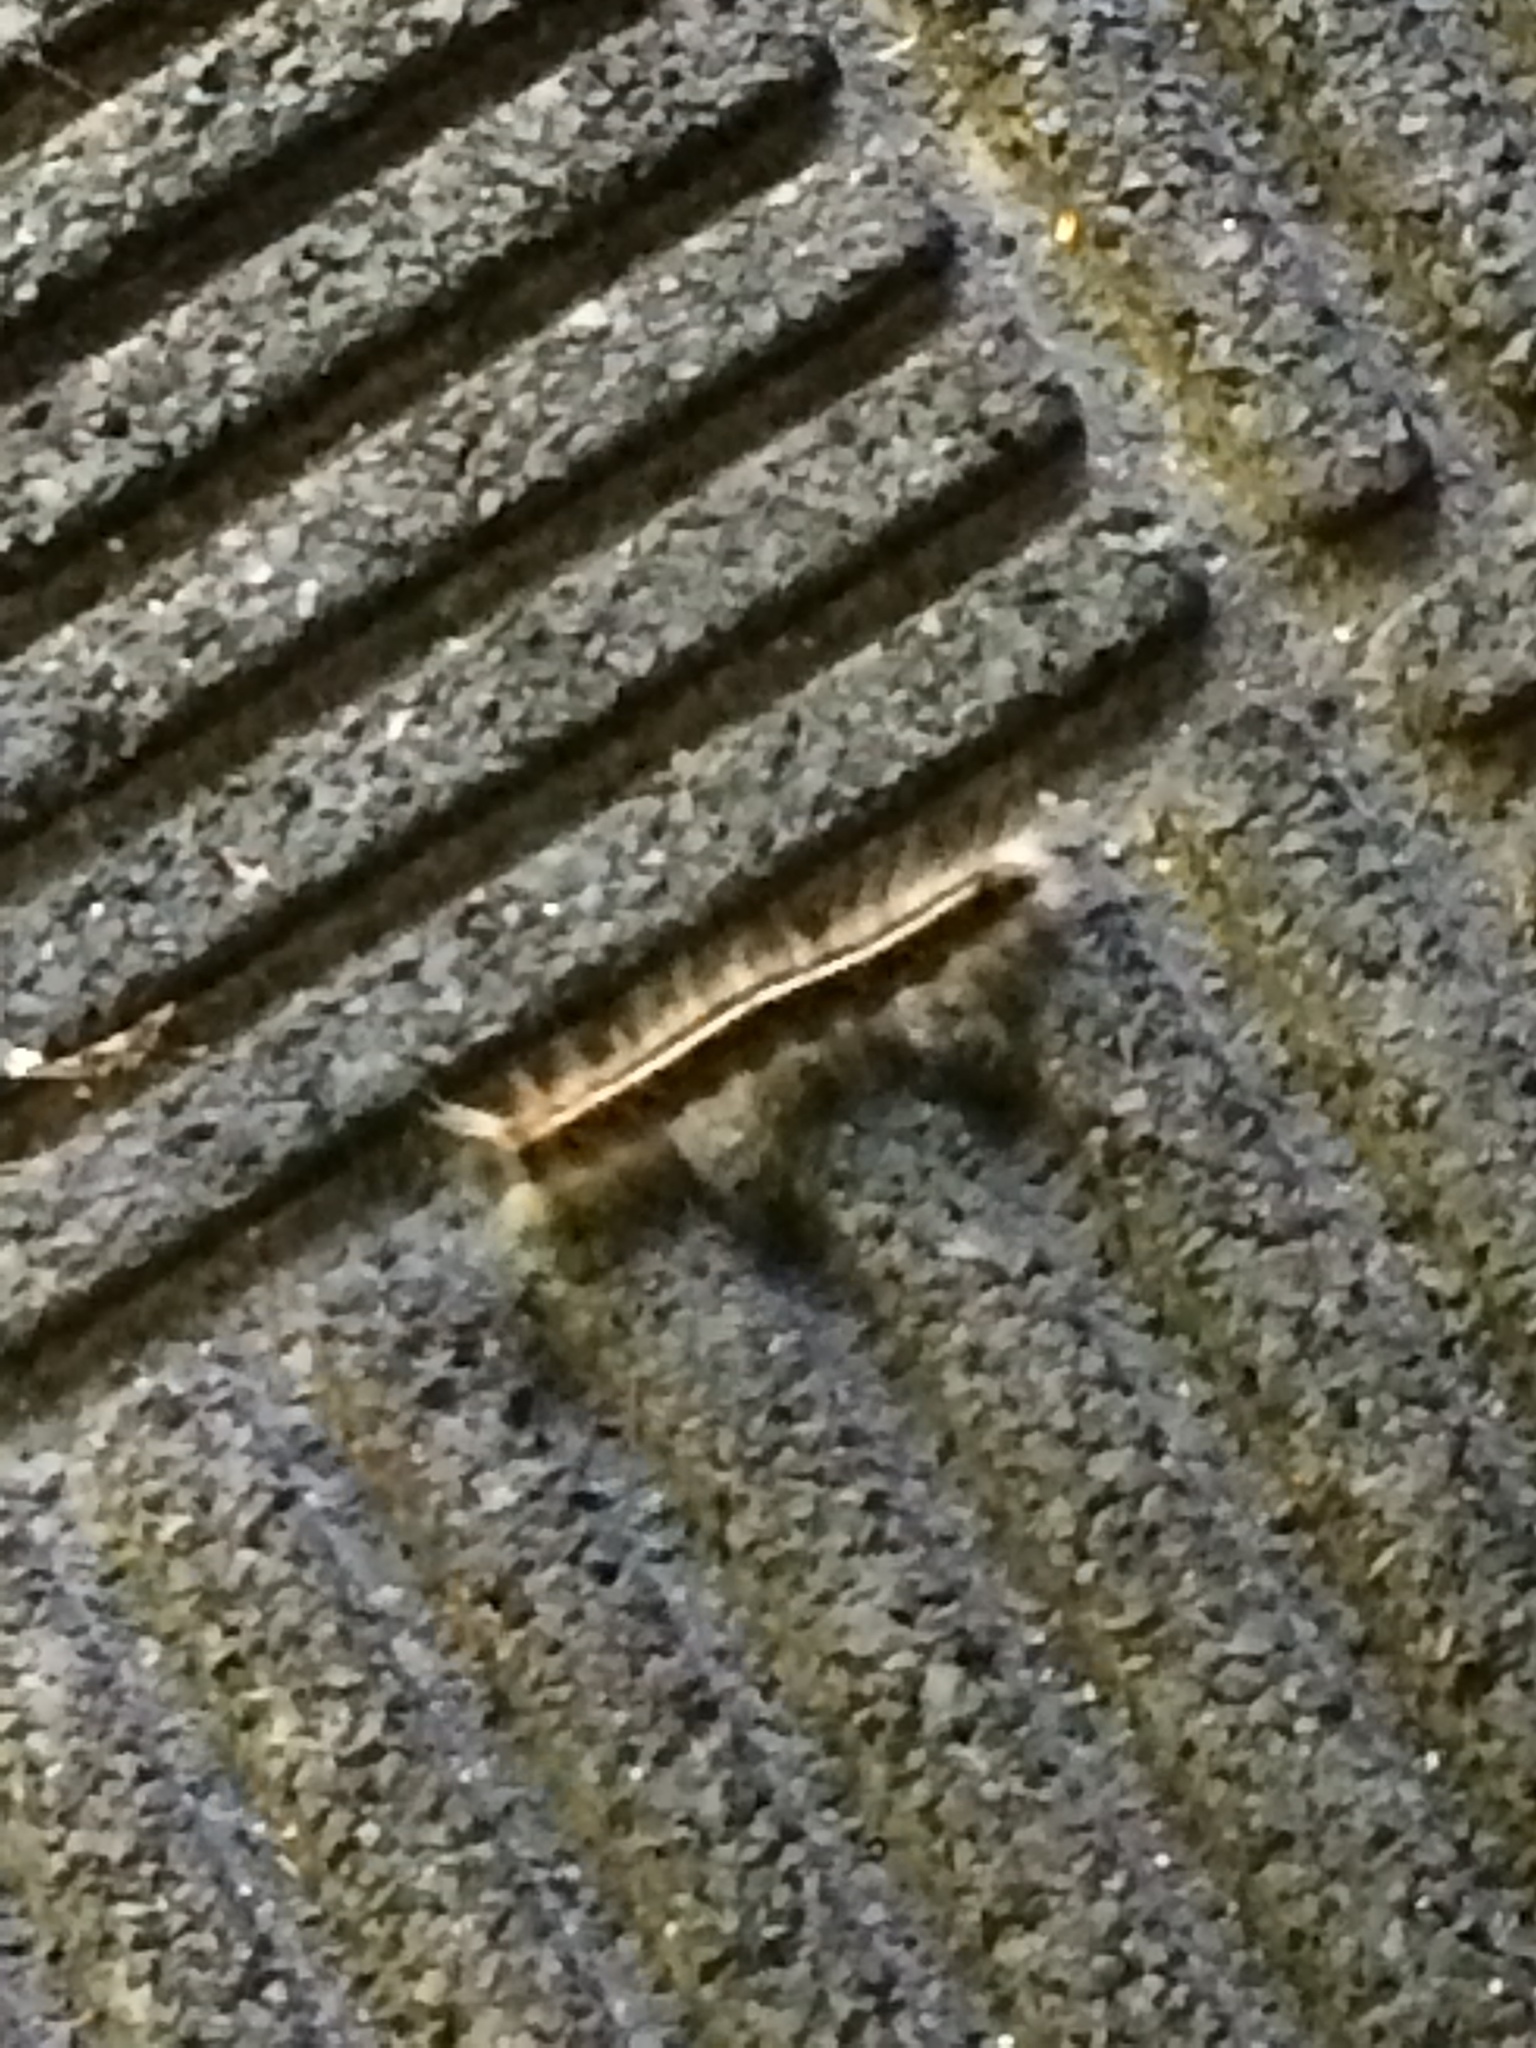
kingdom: Animalia
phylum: Arthropoda
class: Insecta
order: Lepidoptera
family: Lasiocampidae
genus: Malacosoma
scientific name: Malacosoma americana
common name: Eastern tent caterpillar moth
